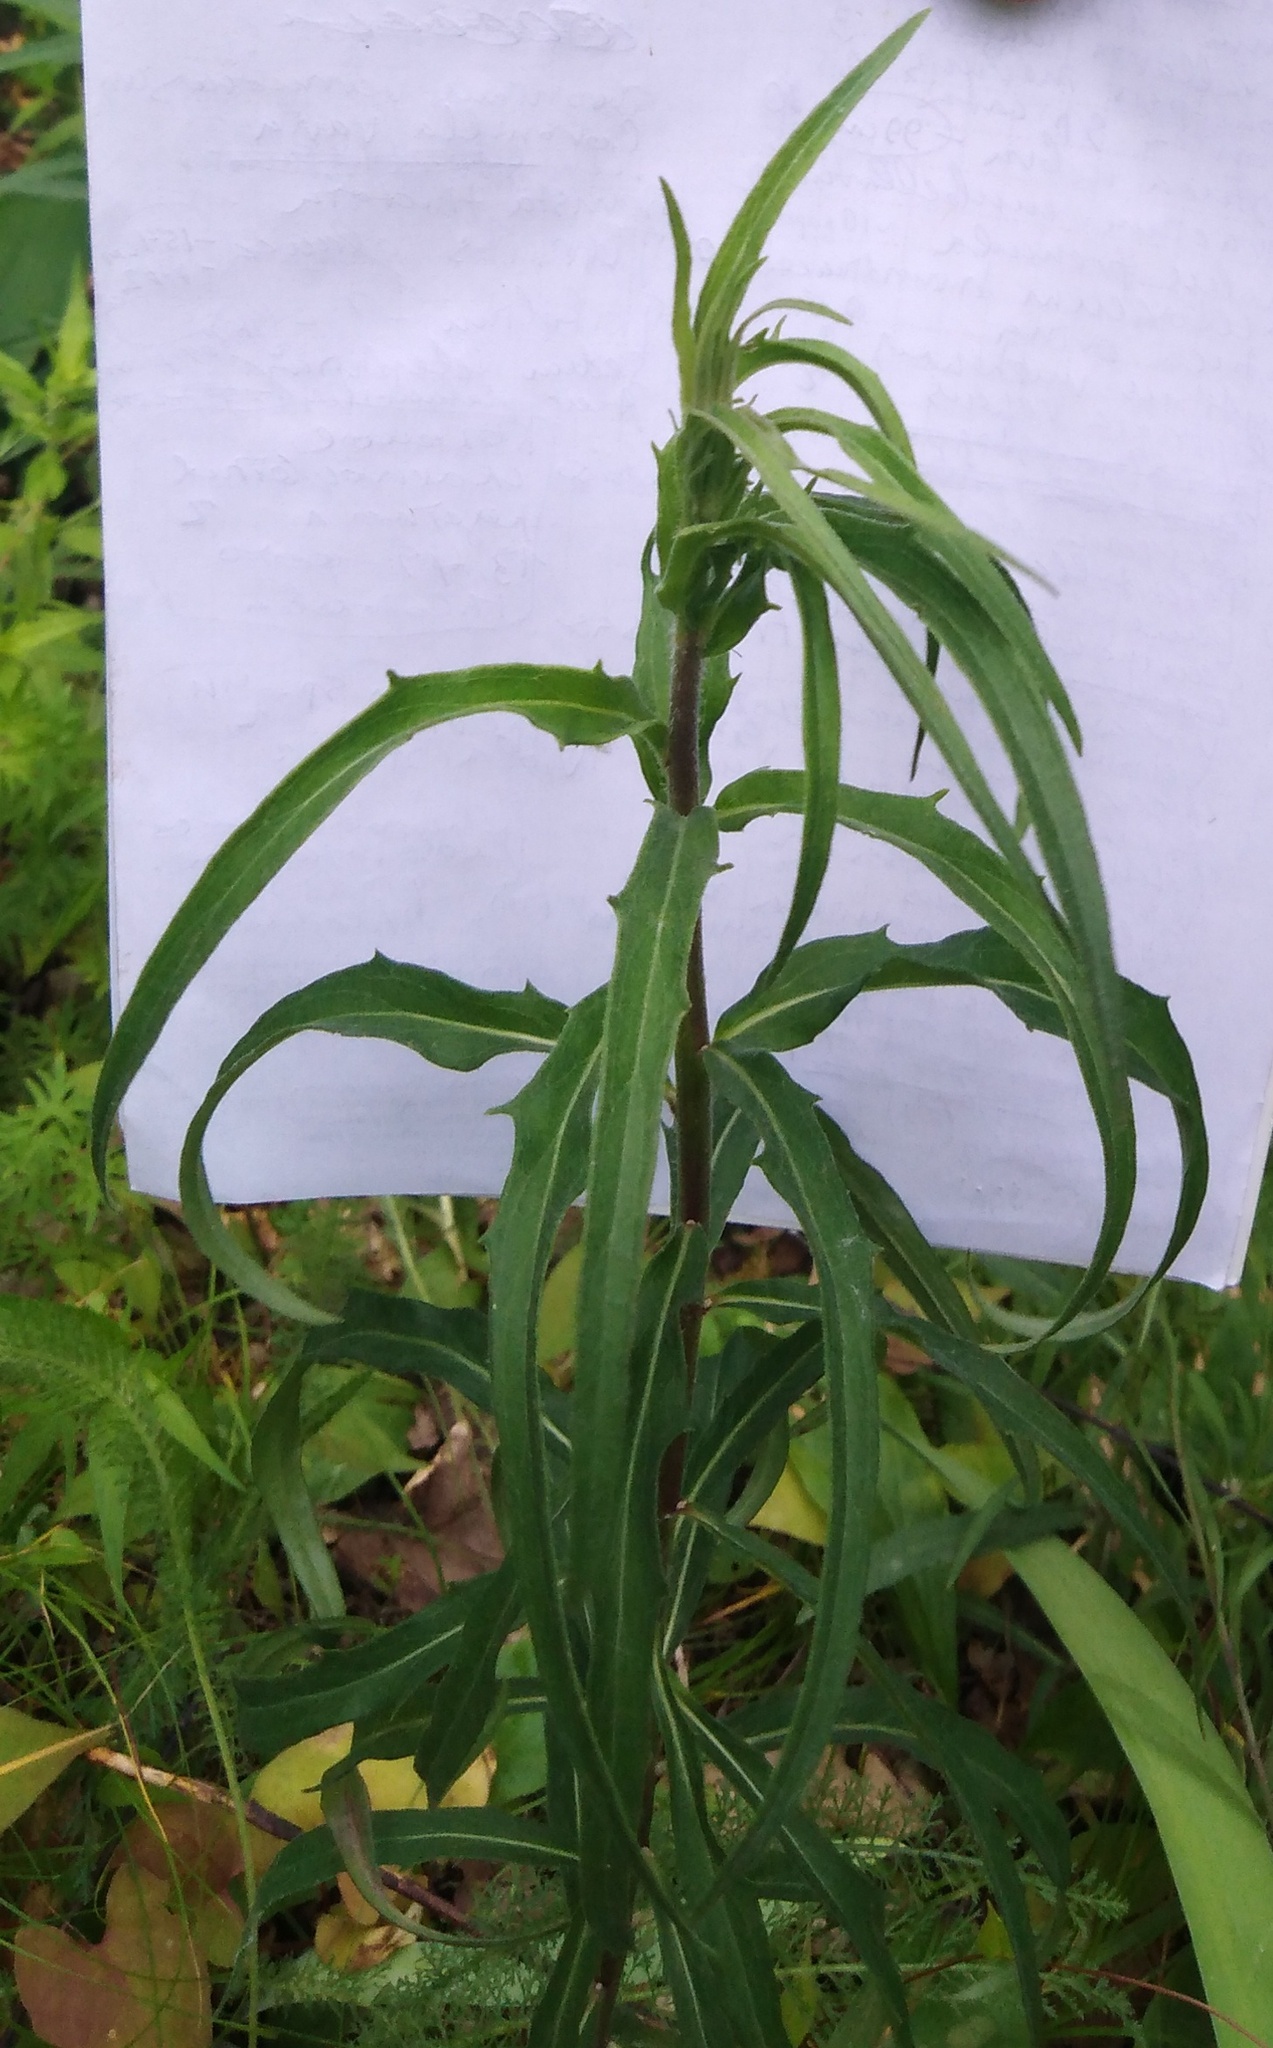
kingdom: Plantae
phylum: Tracheophyta
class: Magnoliopsida
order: Asterales
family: Asteraceae
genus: Hieracium
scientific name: Hieracium umbellatum
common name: Northern hawkweed
